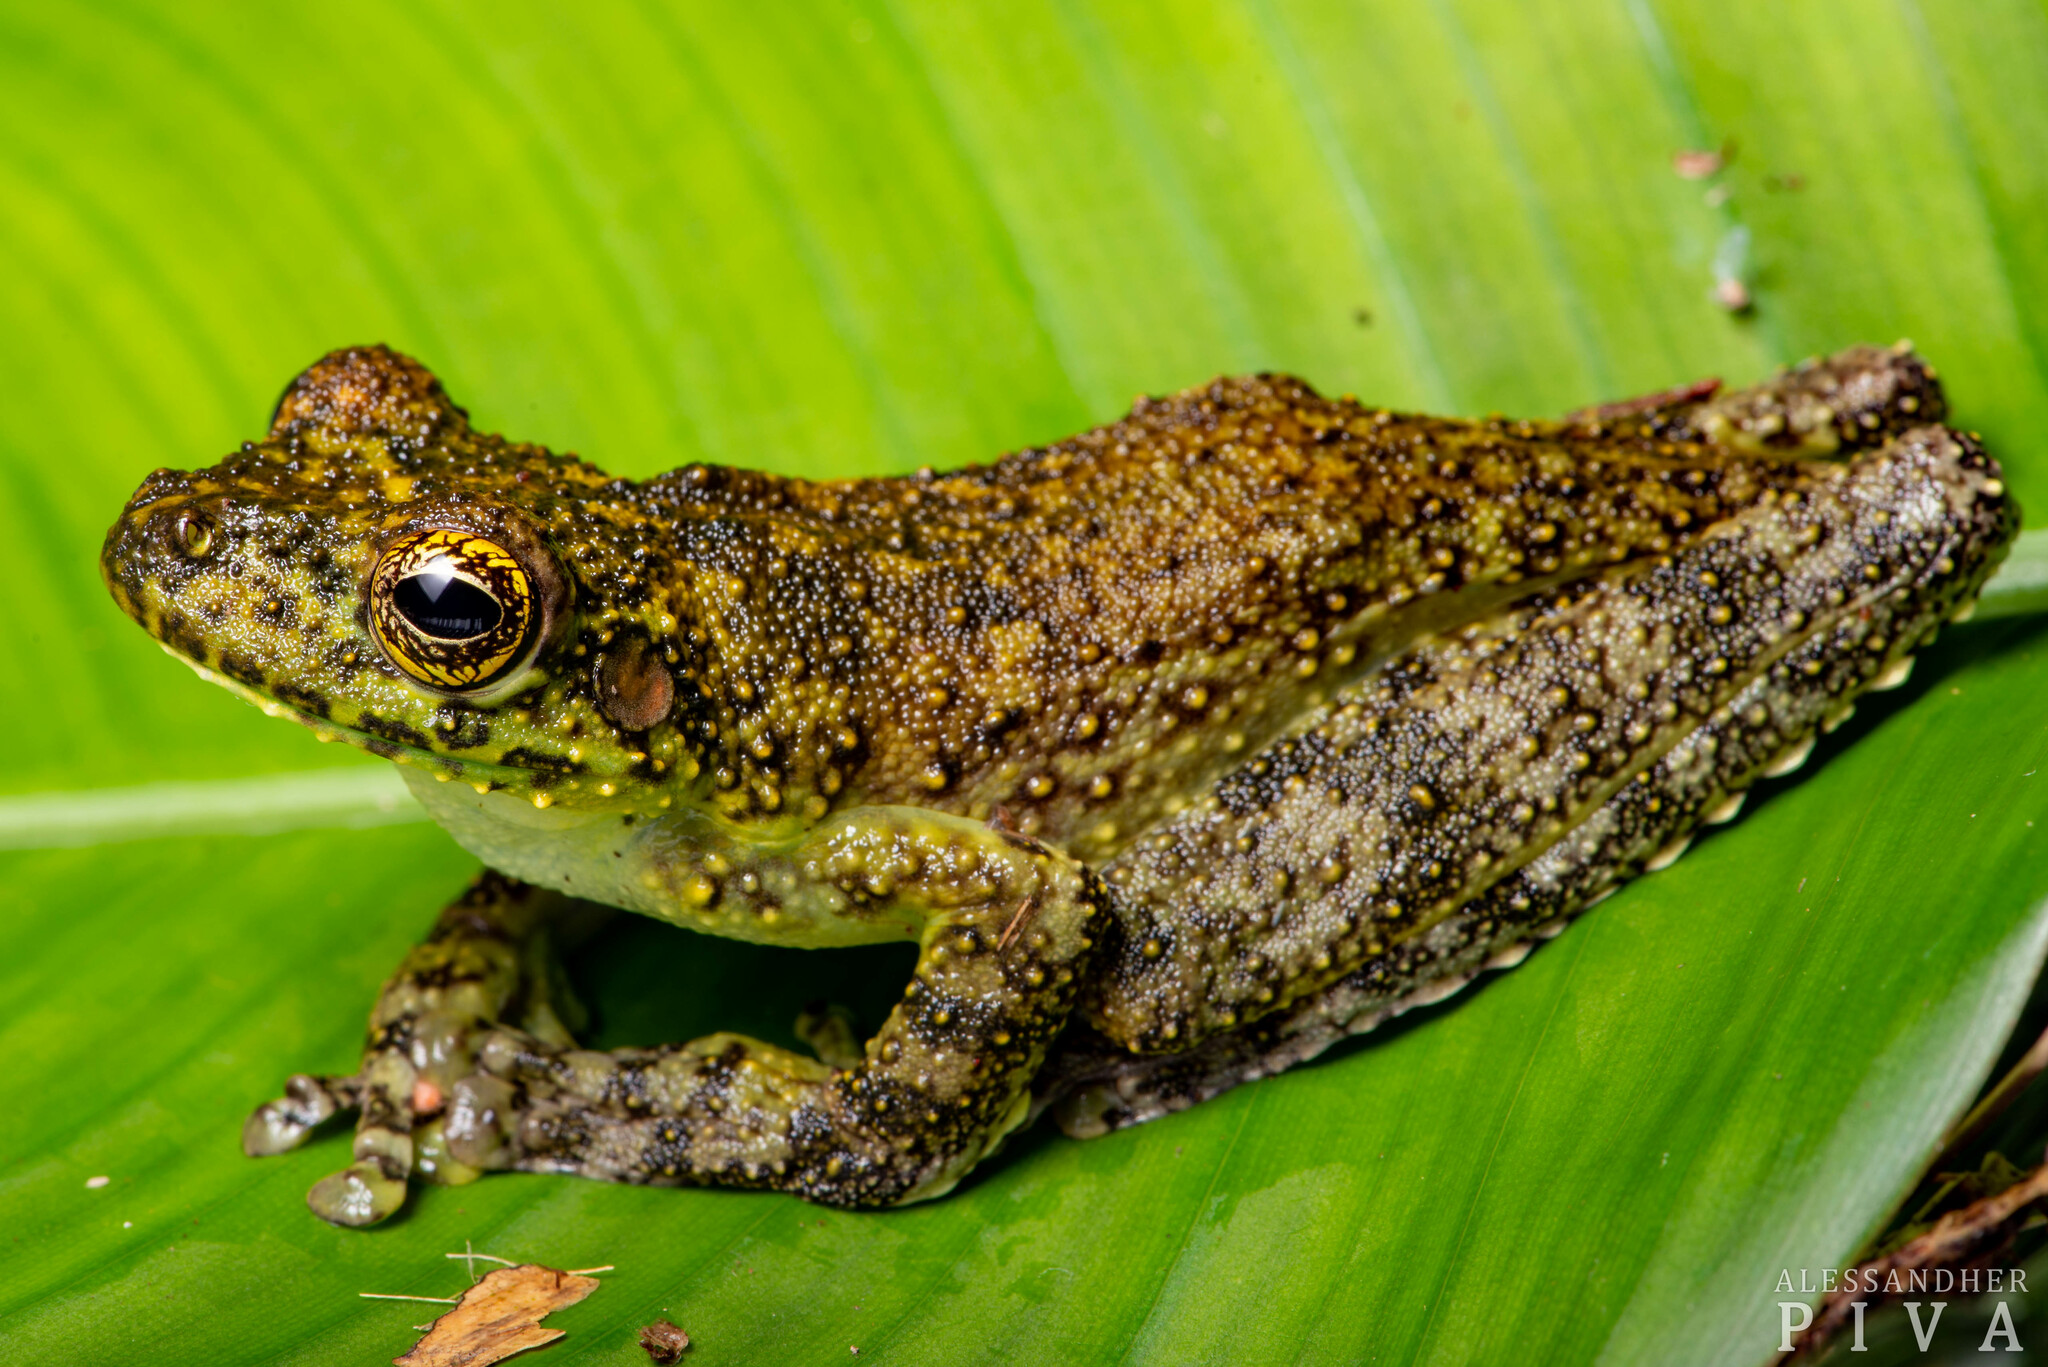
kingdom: Animalia
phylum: Chordata
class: Amphibia
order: Anura
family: Hylidae
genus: Itapotihyla
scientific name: Itapotihyla langsdorffii
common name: Ocellated treefrog
